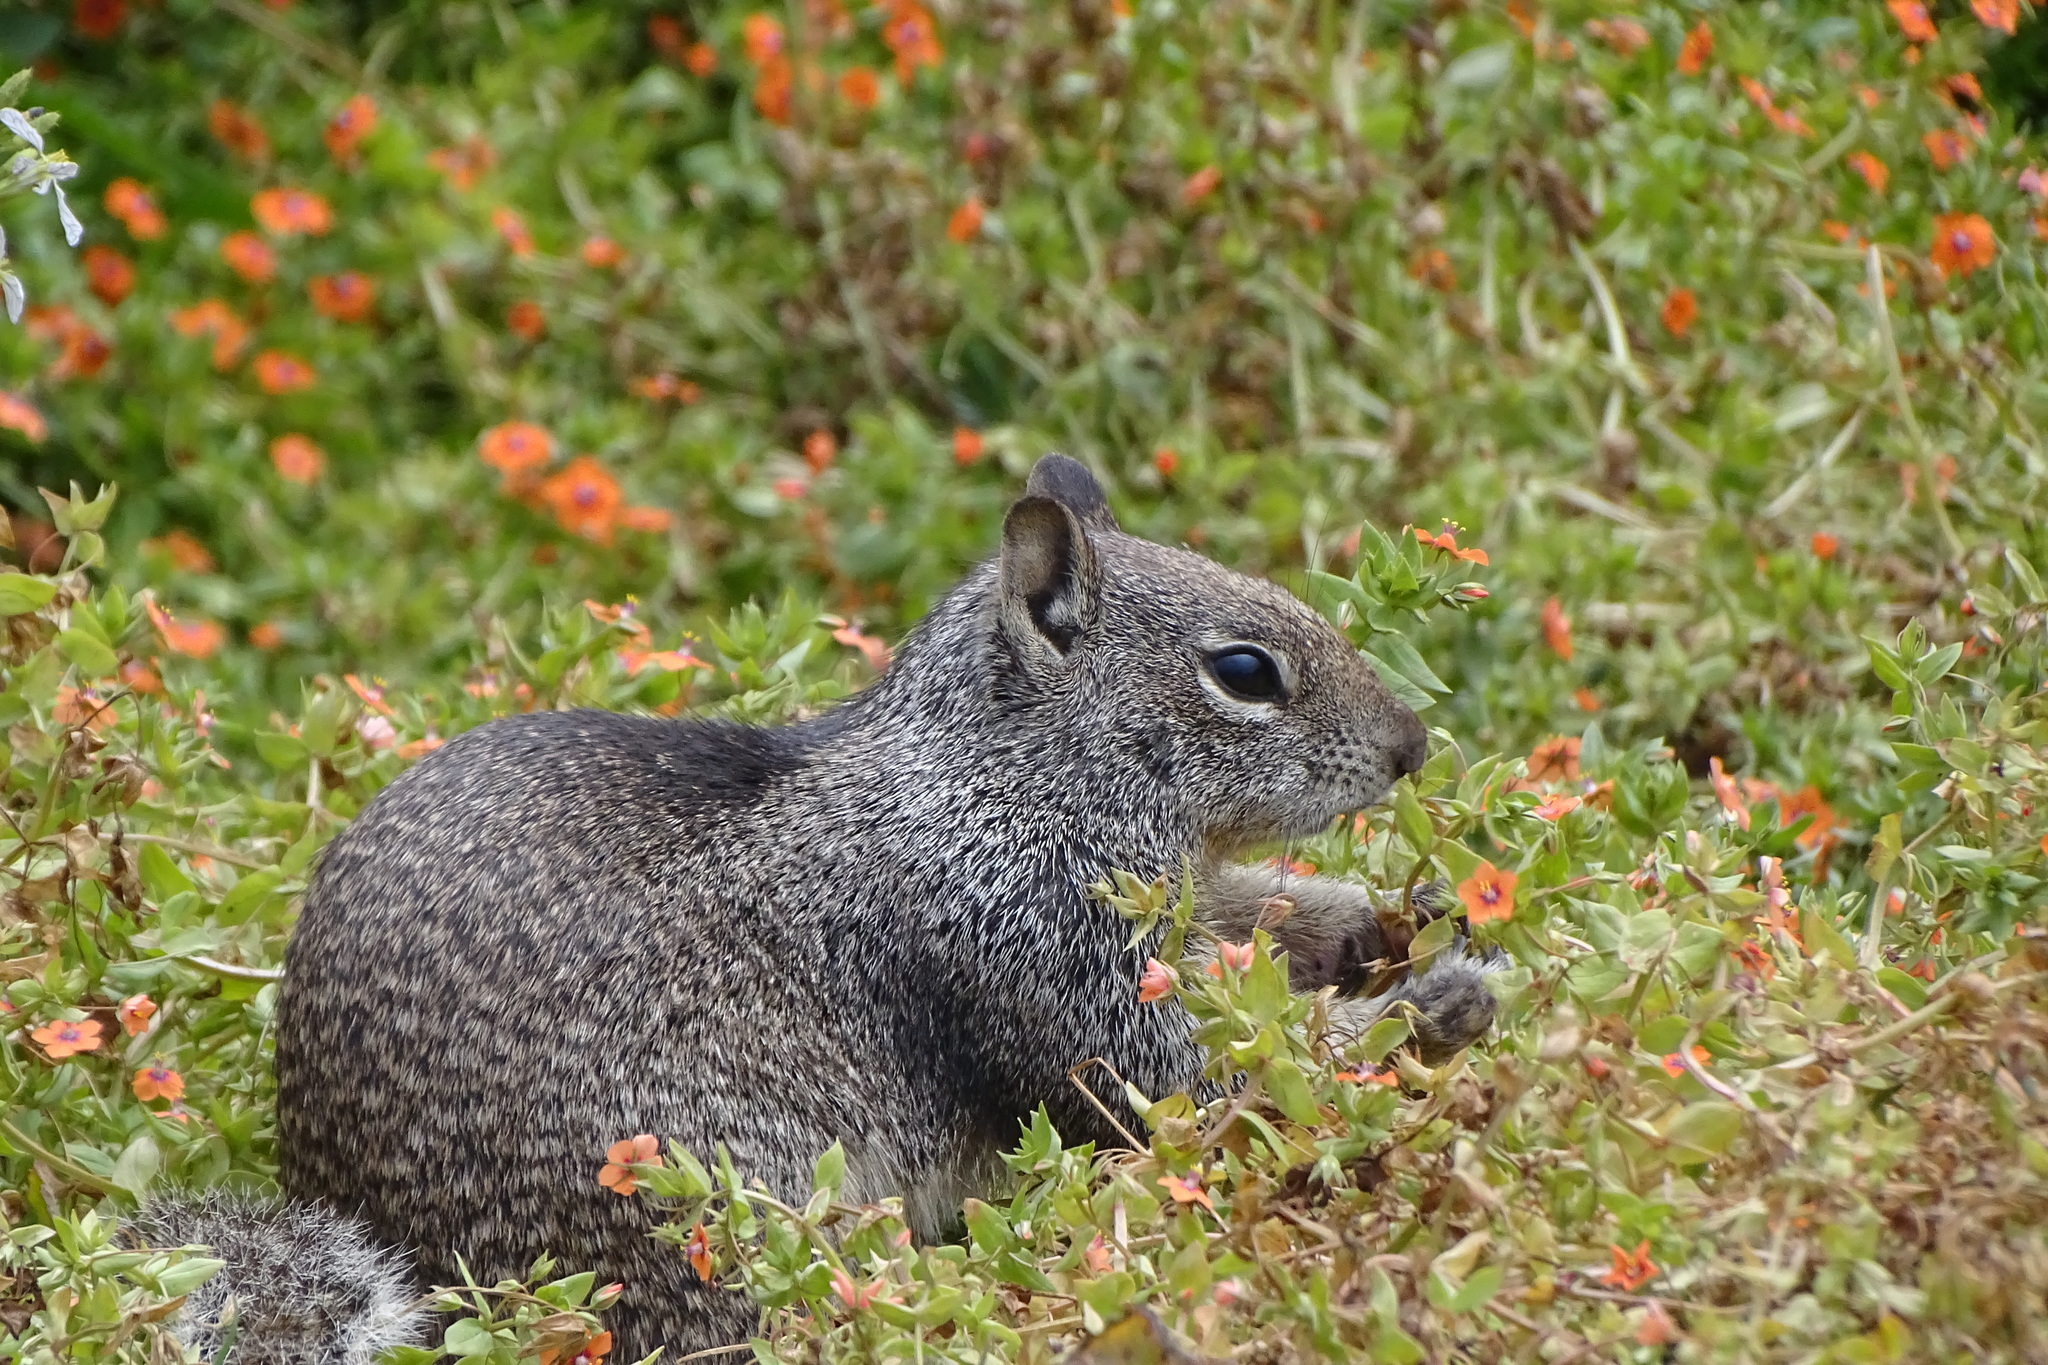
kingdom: Animalia
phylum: Chordata
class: Mammalia
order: Rodentia
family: Sciuridae
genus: Otospermophilus
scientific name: Otospermophilus beecheyi
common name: California ground squirrel
